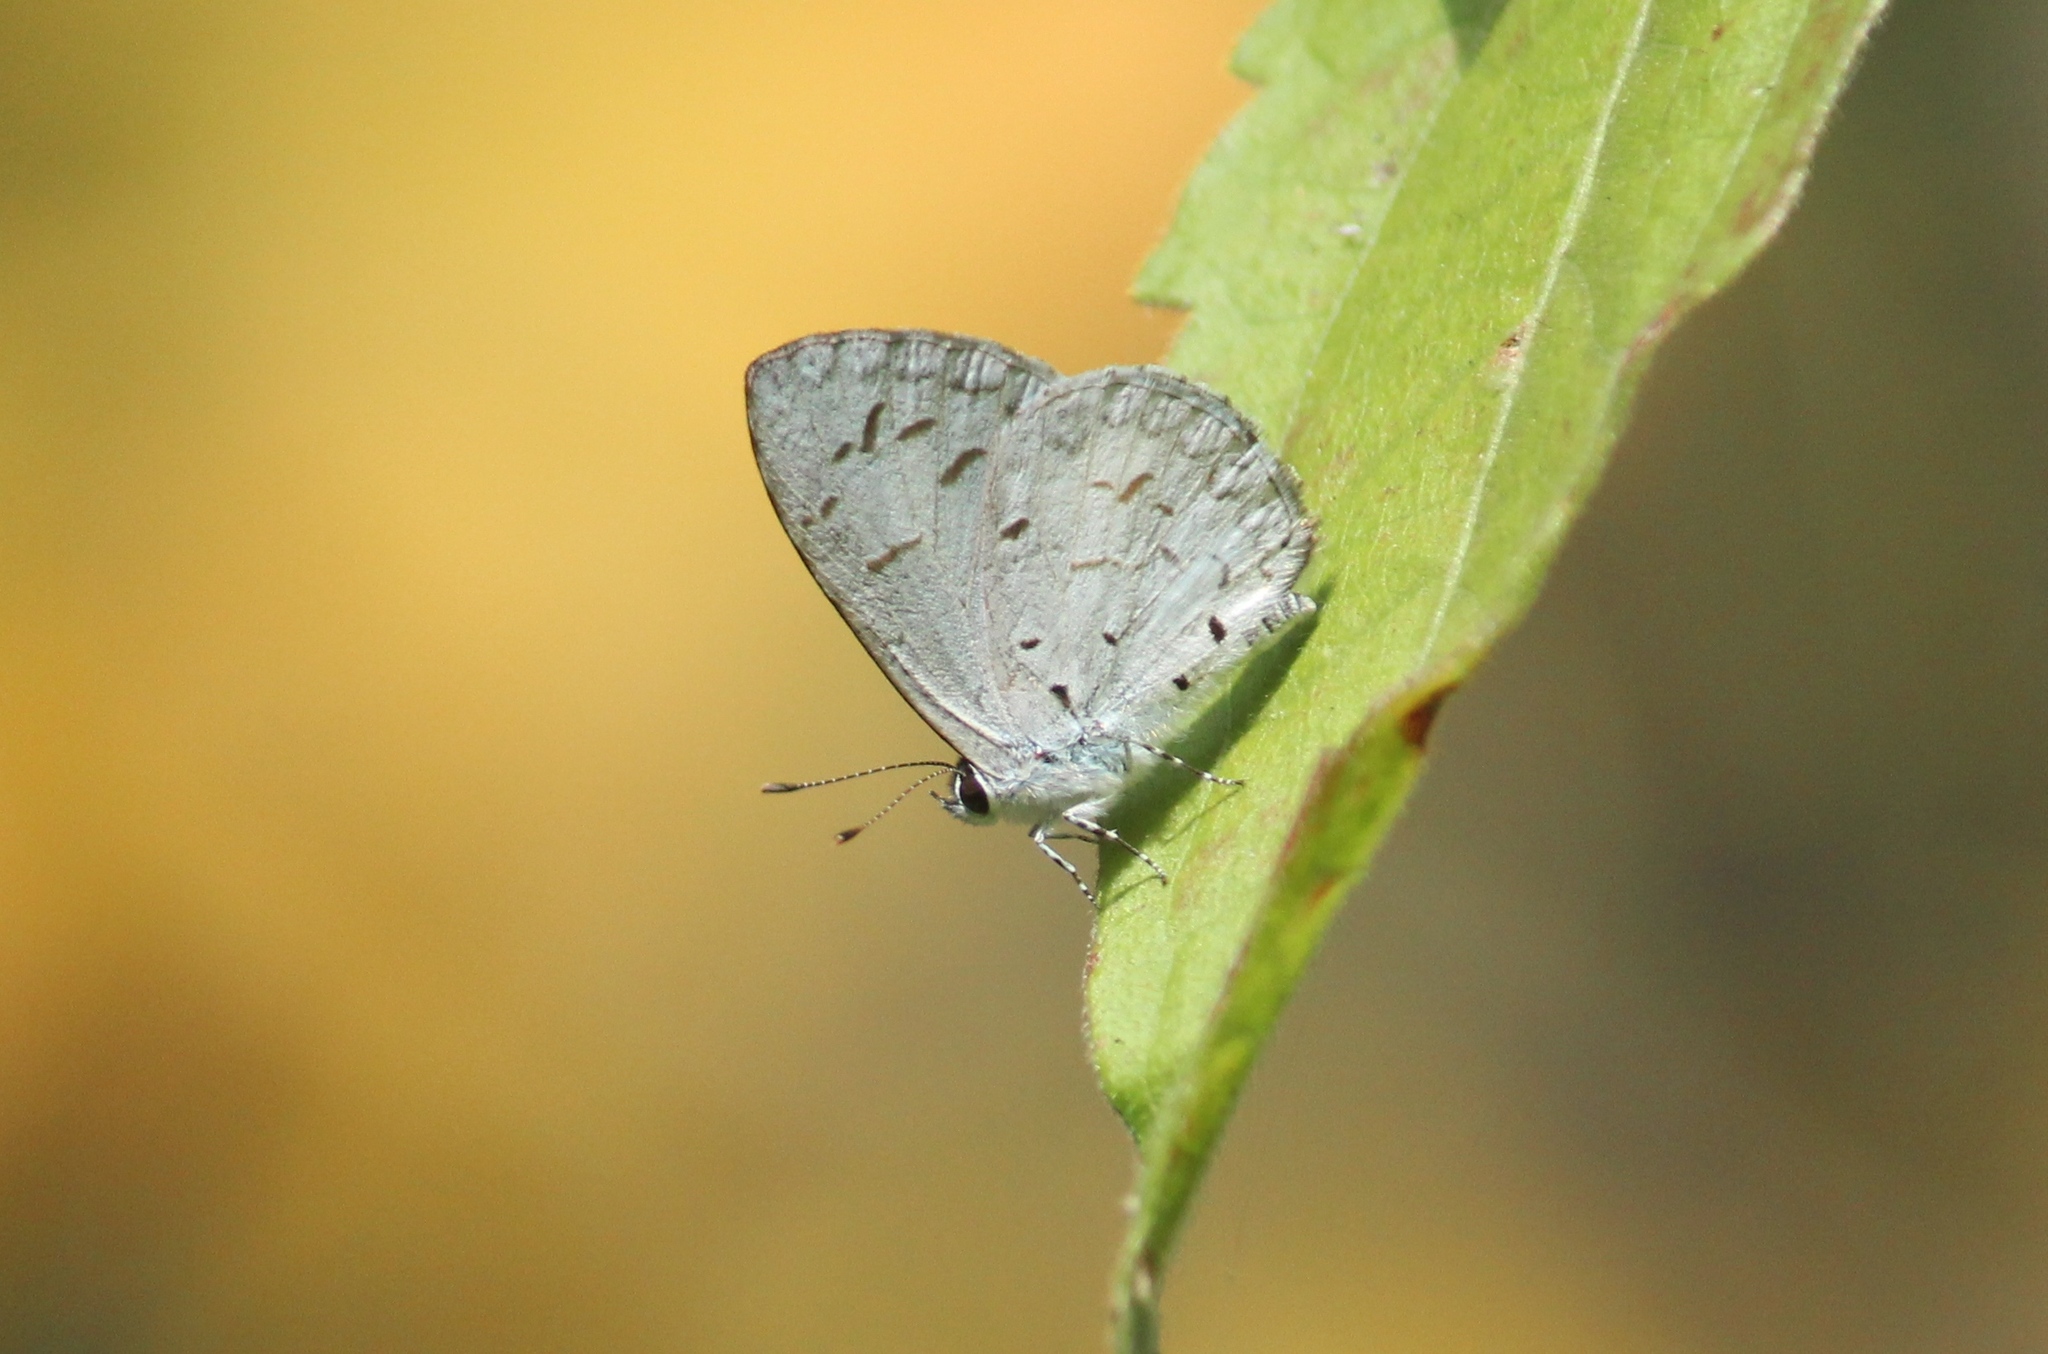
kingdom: Animalia
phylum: Arthropoda
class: Insecta
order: Lepidoptera
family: Lycaenidae
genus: Acytolepis
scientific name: Acytolepis puspa
